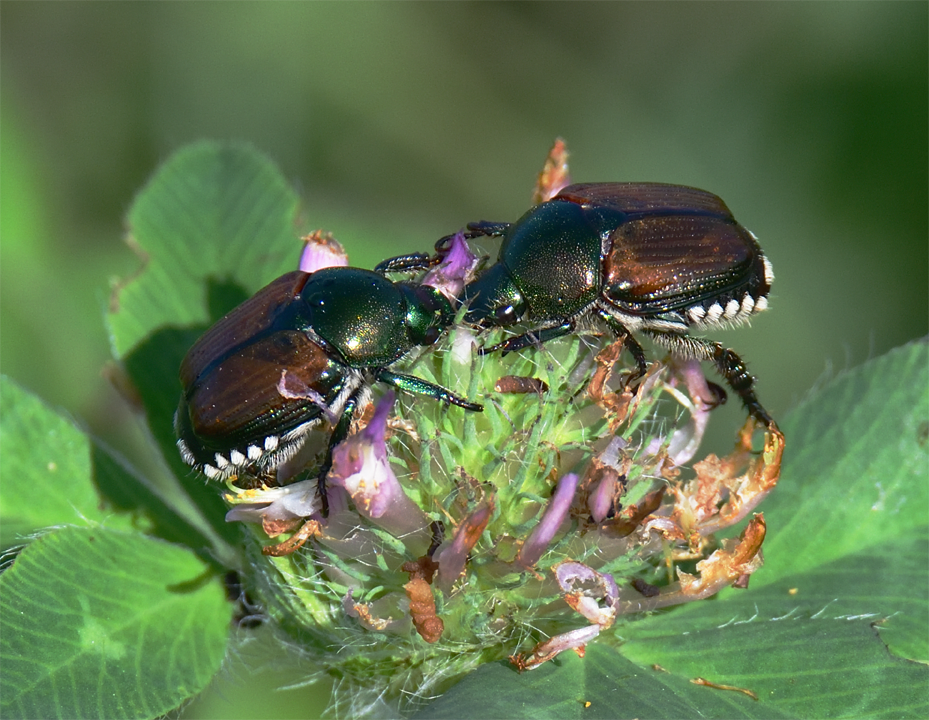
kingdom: Animalia
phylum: Arthropoda
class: Insecta
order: Coleoptera
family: Scarabaeidae
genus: Popillia
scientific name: Popillia japonica
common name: Japanese beetle
